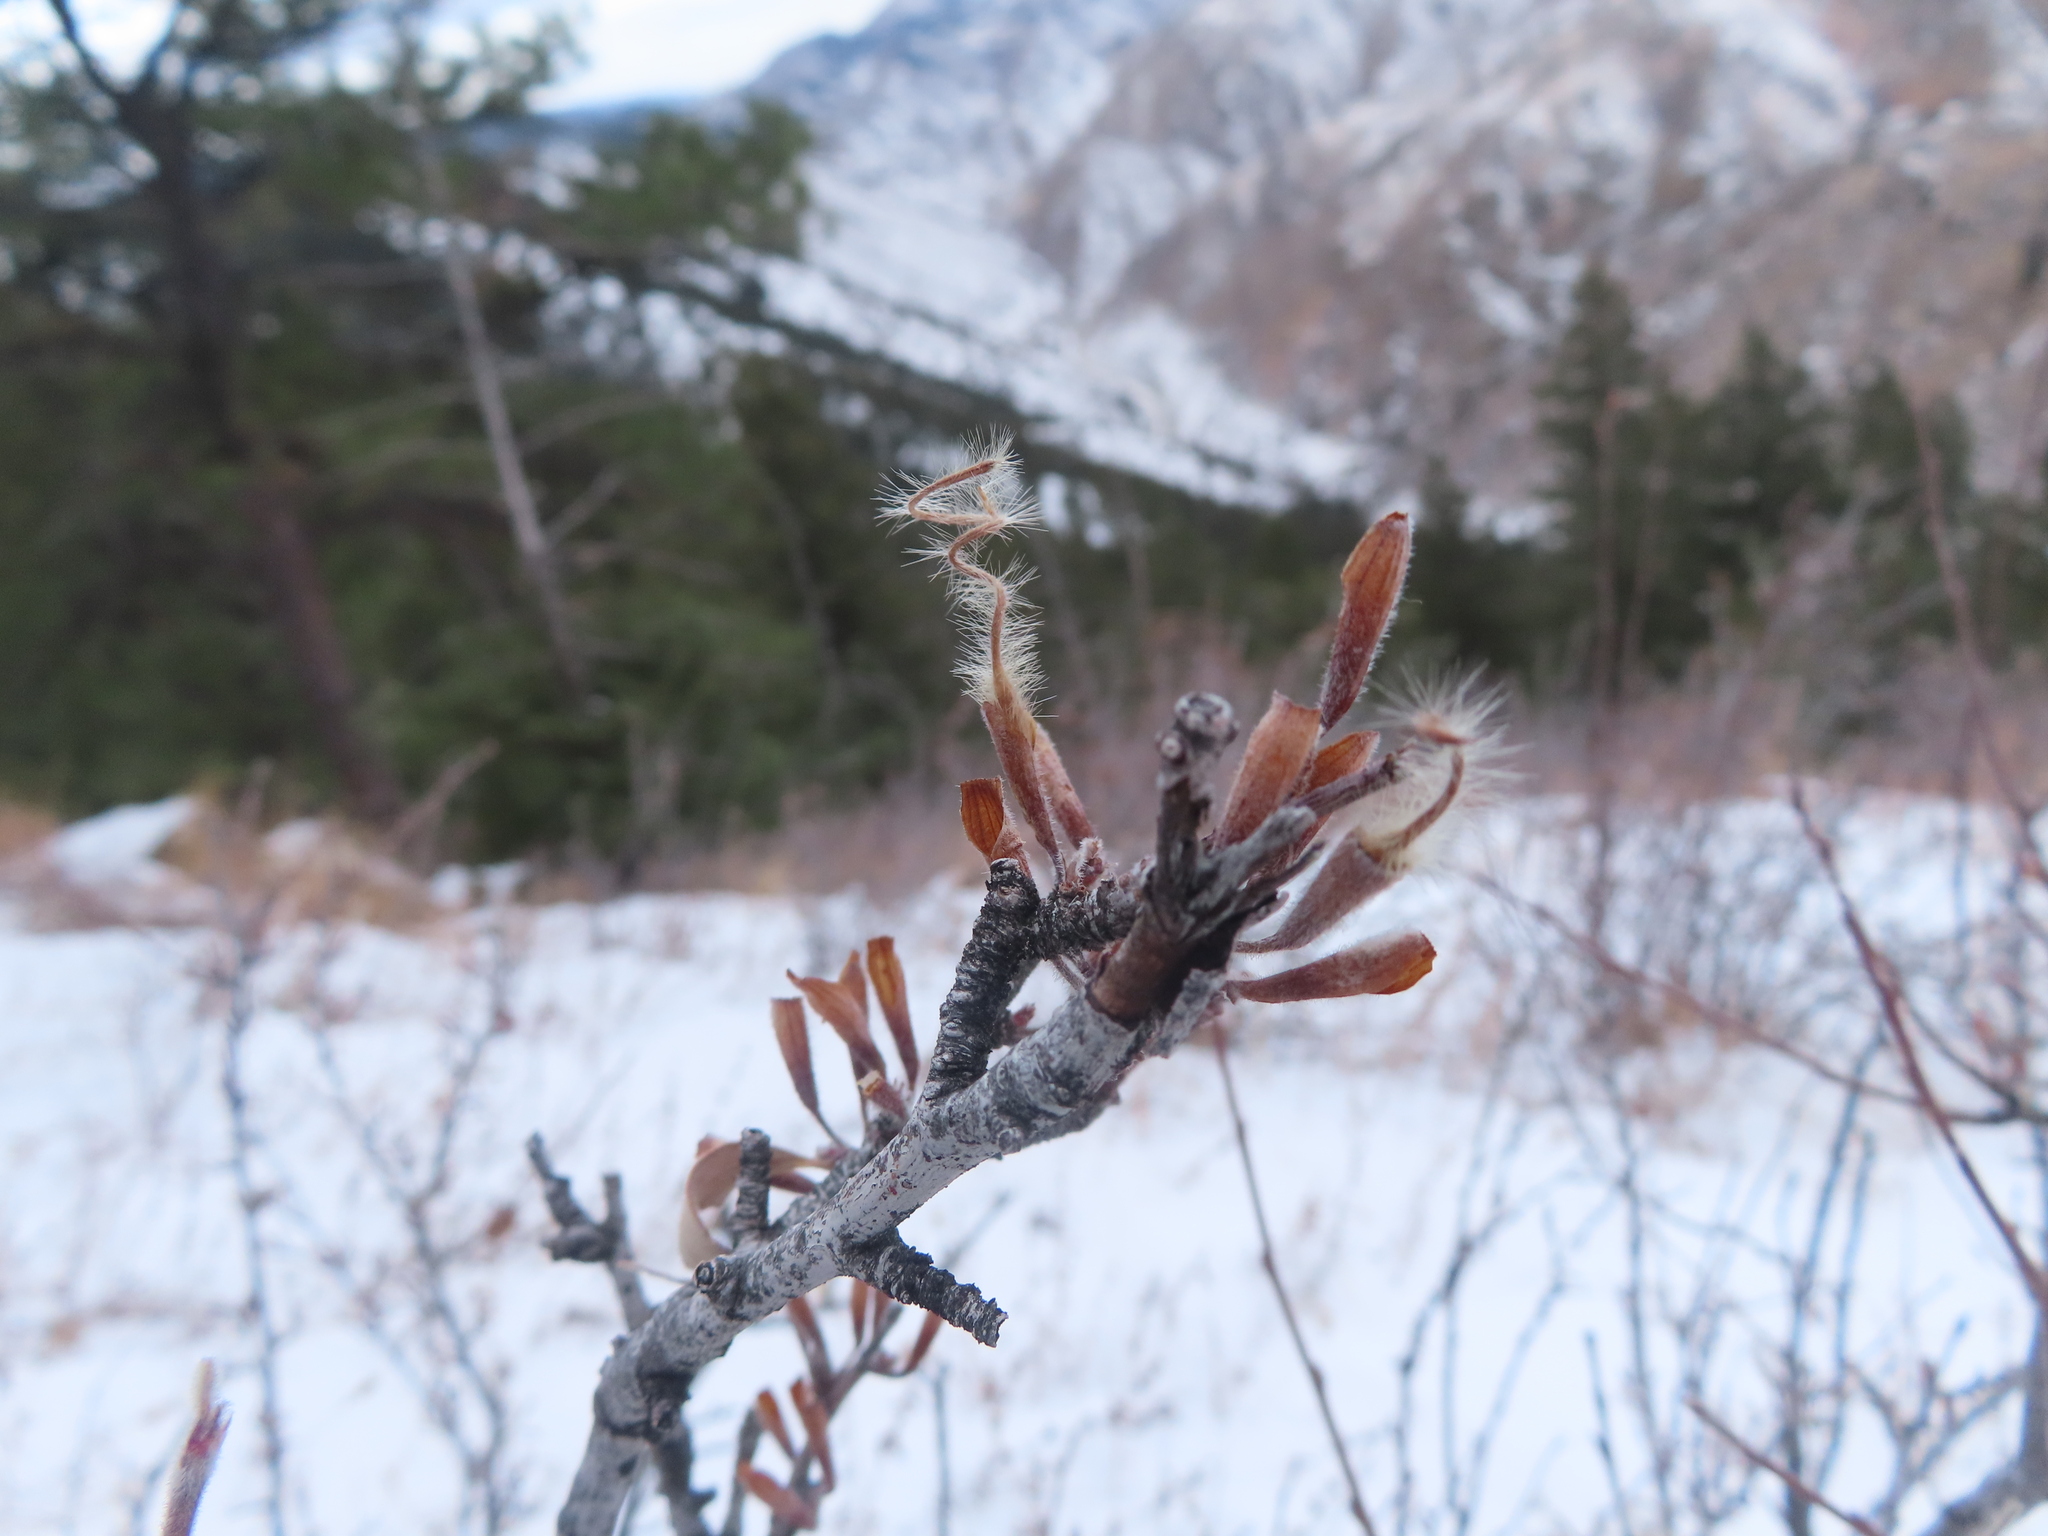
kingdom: Plantae
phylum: Tracheophyta
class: Magnoliopsida
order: Rosales
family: Rosaceae
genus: Cercocarpus
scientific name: Cercocarpus montanus
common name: Alder-leaf cercocarpus
